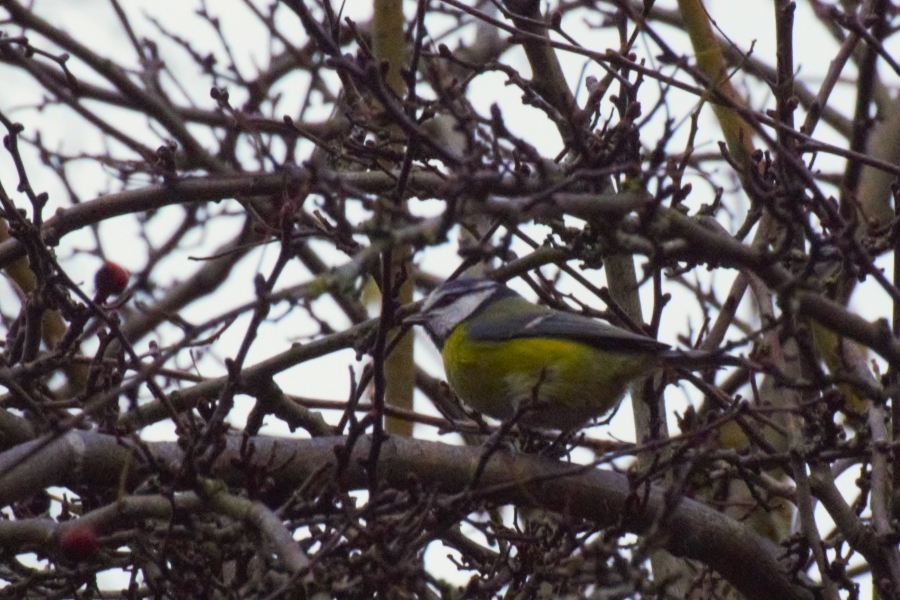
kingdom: Animalia
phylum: Chordata
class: Aves
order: Passeriformes
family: Paridae
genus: Cyanistes
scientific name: Cyanistes caeruleus
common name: Eurasian blue tit
